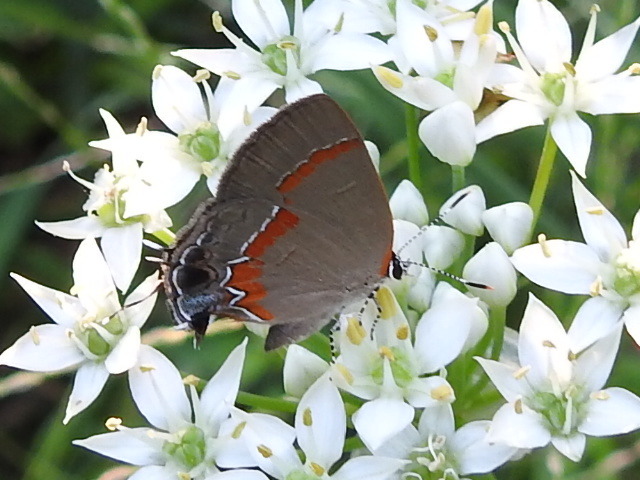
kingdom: Animalia
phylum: Arthropoda
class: Insecta
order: Lepidoptera
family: Lycaenidae
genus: Calycopis
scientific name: Calycopis cecrops
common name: Red-banded hairstreak
